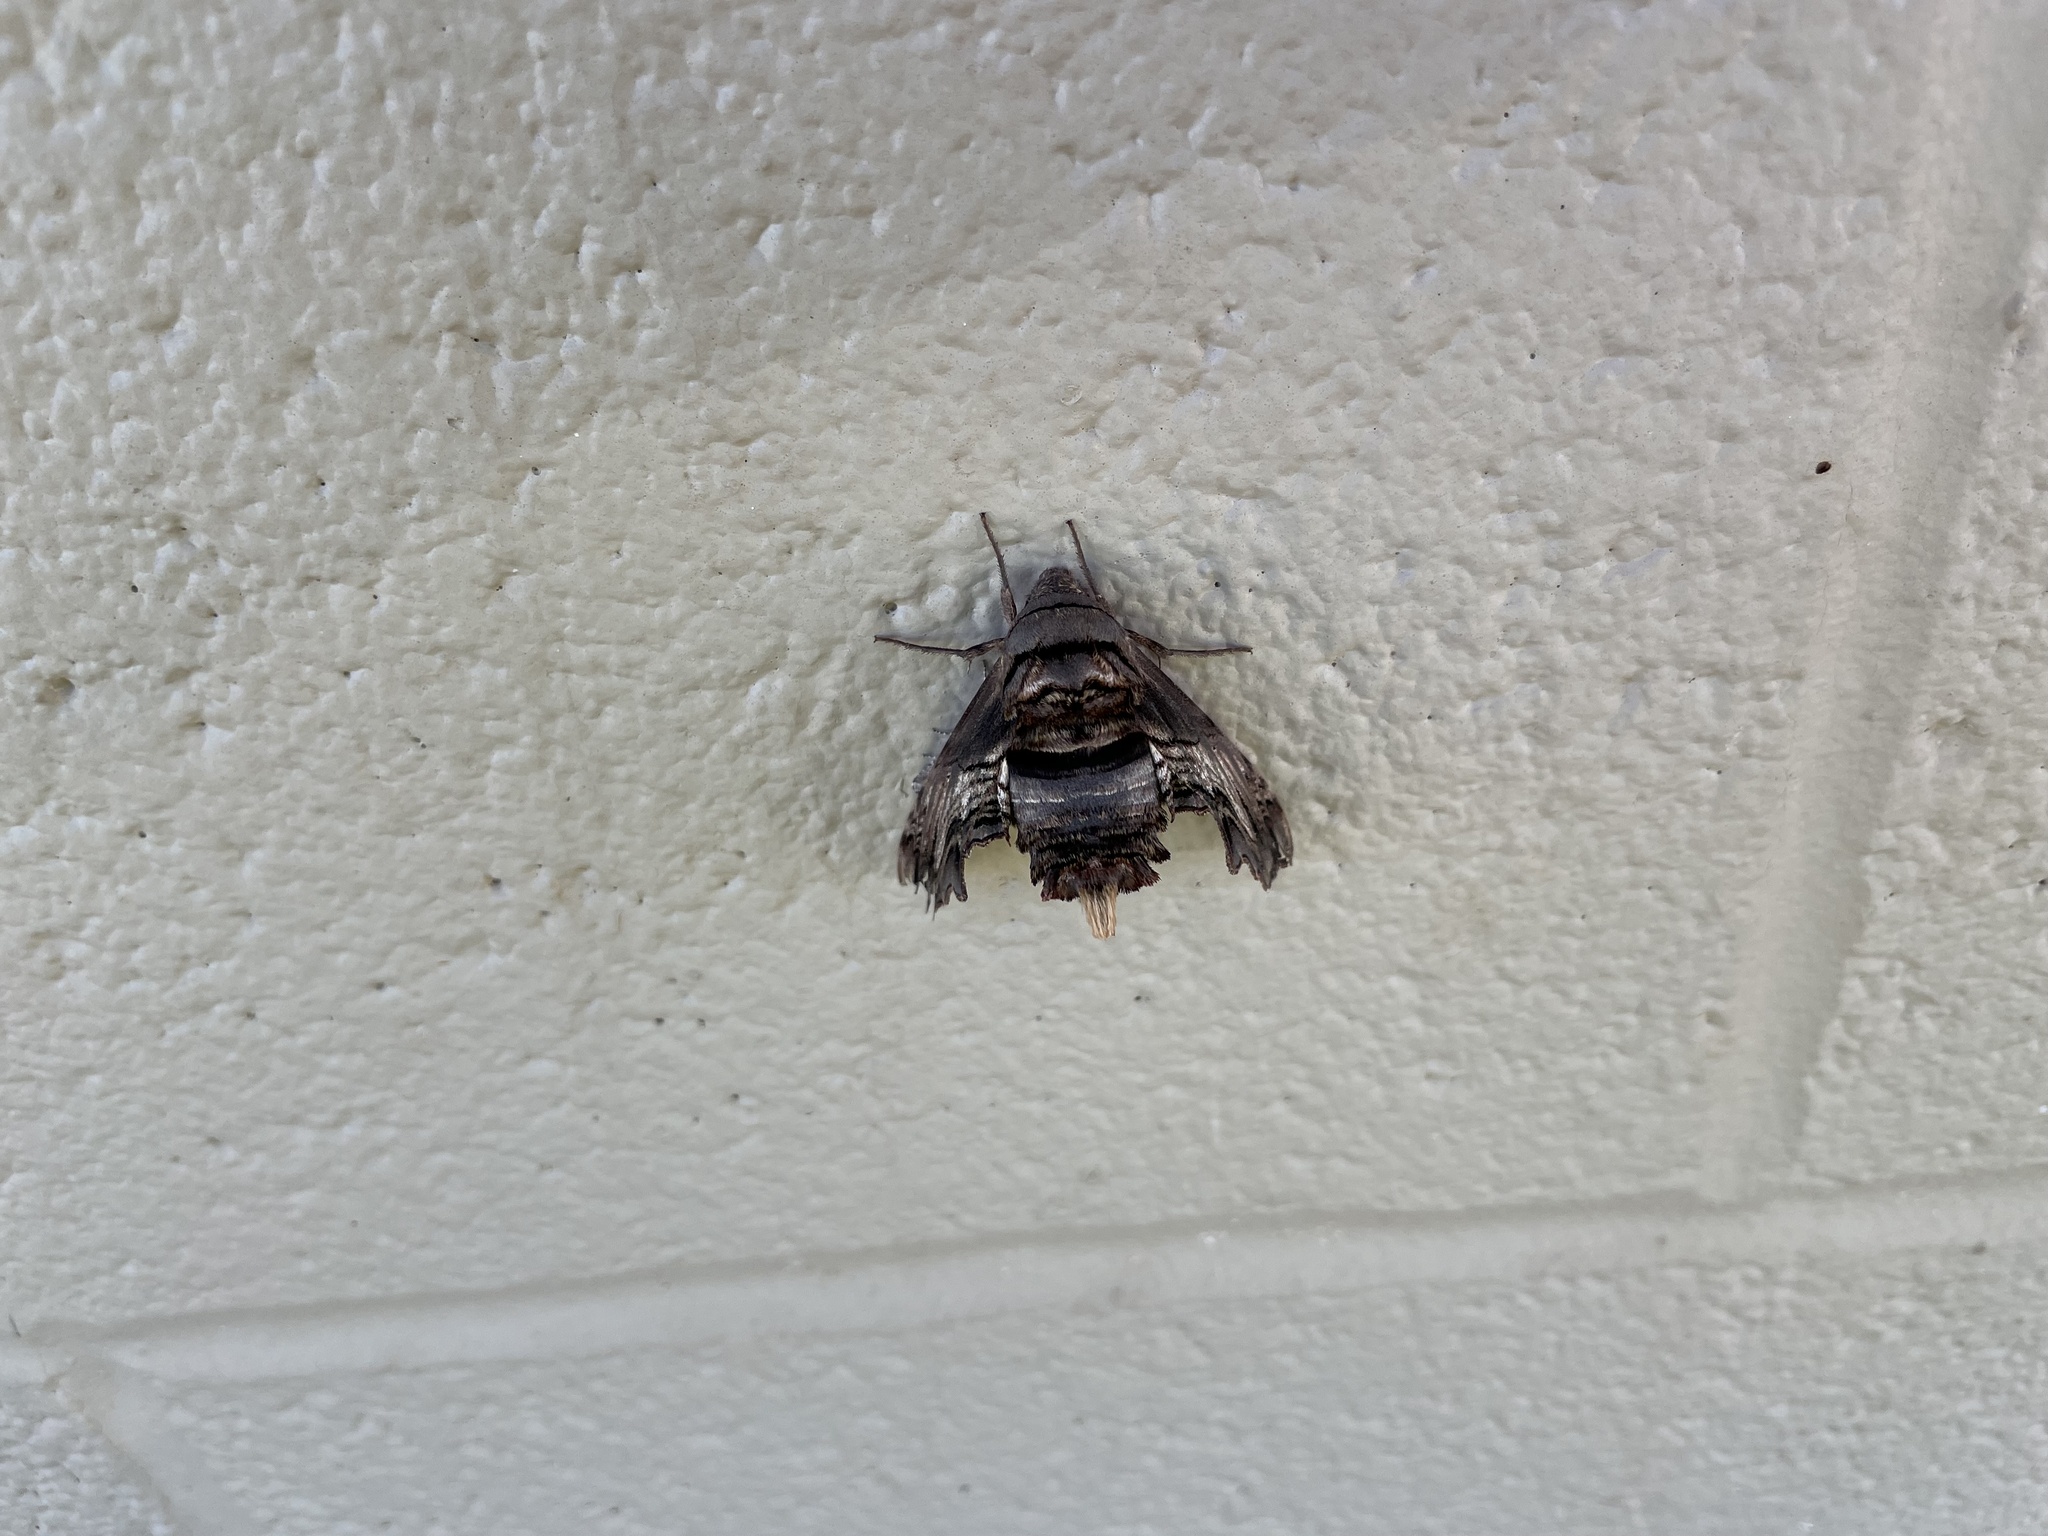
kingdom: Animalia
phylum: Arthropoda
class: Insecta
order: Lepidoptera
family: Sphingidae
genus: Sphecodina
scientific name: Sphecodina abbottii
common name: Abbott's sphinx
